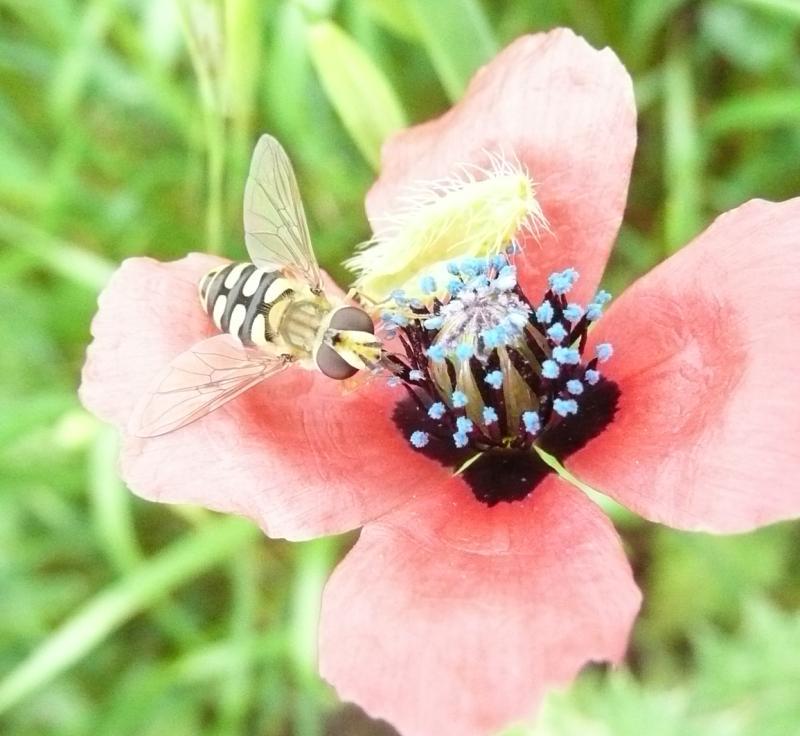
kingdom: Plantae
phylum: Tracheophyta
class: Magnoliopsida
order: Ranunculales
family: Papaveraceae
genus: Roemeria
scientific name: Roemeria hispida
